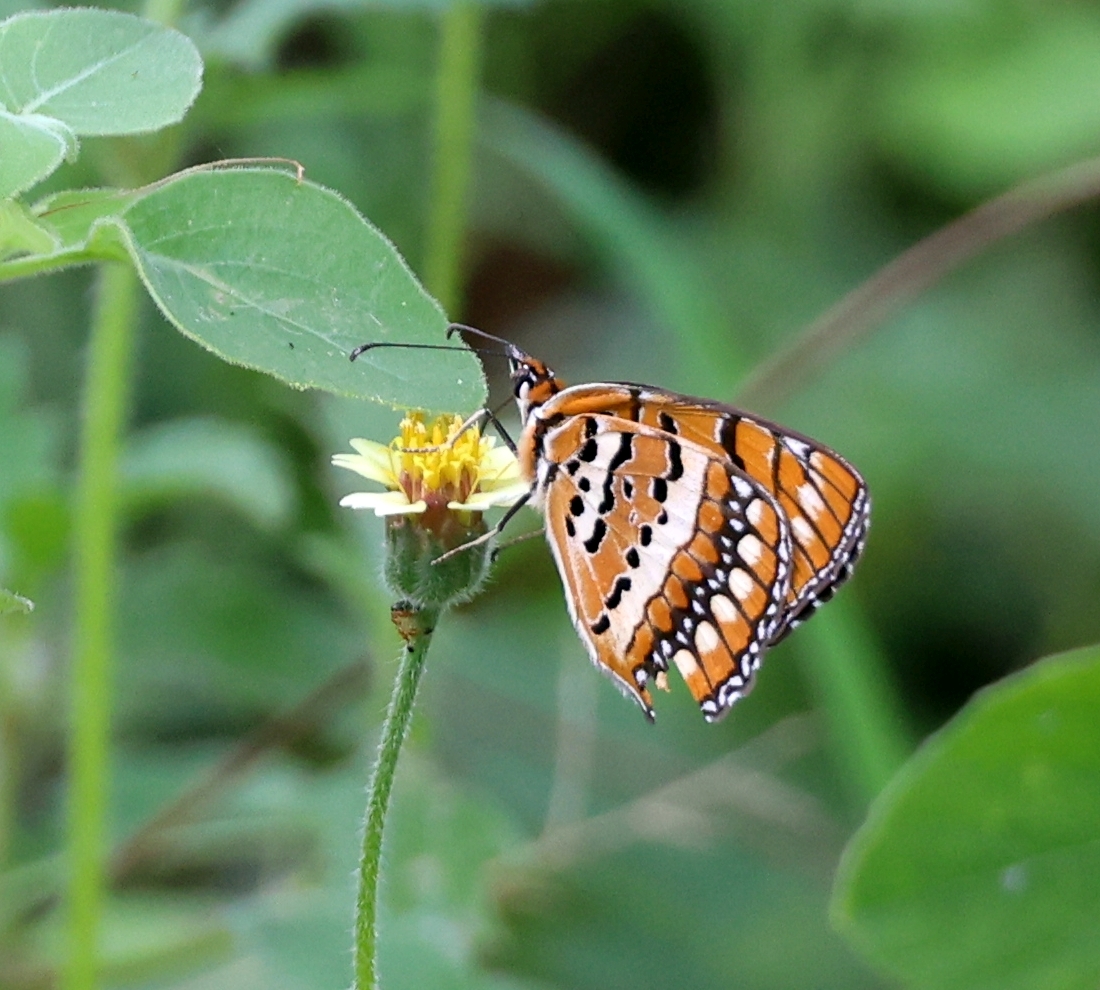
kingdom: Animalia
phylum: Arthropoda
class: Insecta
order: Lepidoptera
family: Nymphalidae
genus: Byblia
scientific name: Byblia ilithyia
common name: Spotted joker
